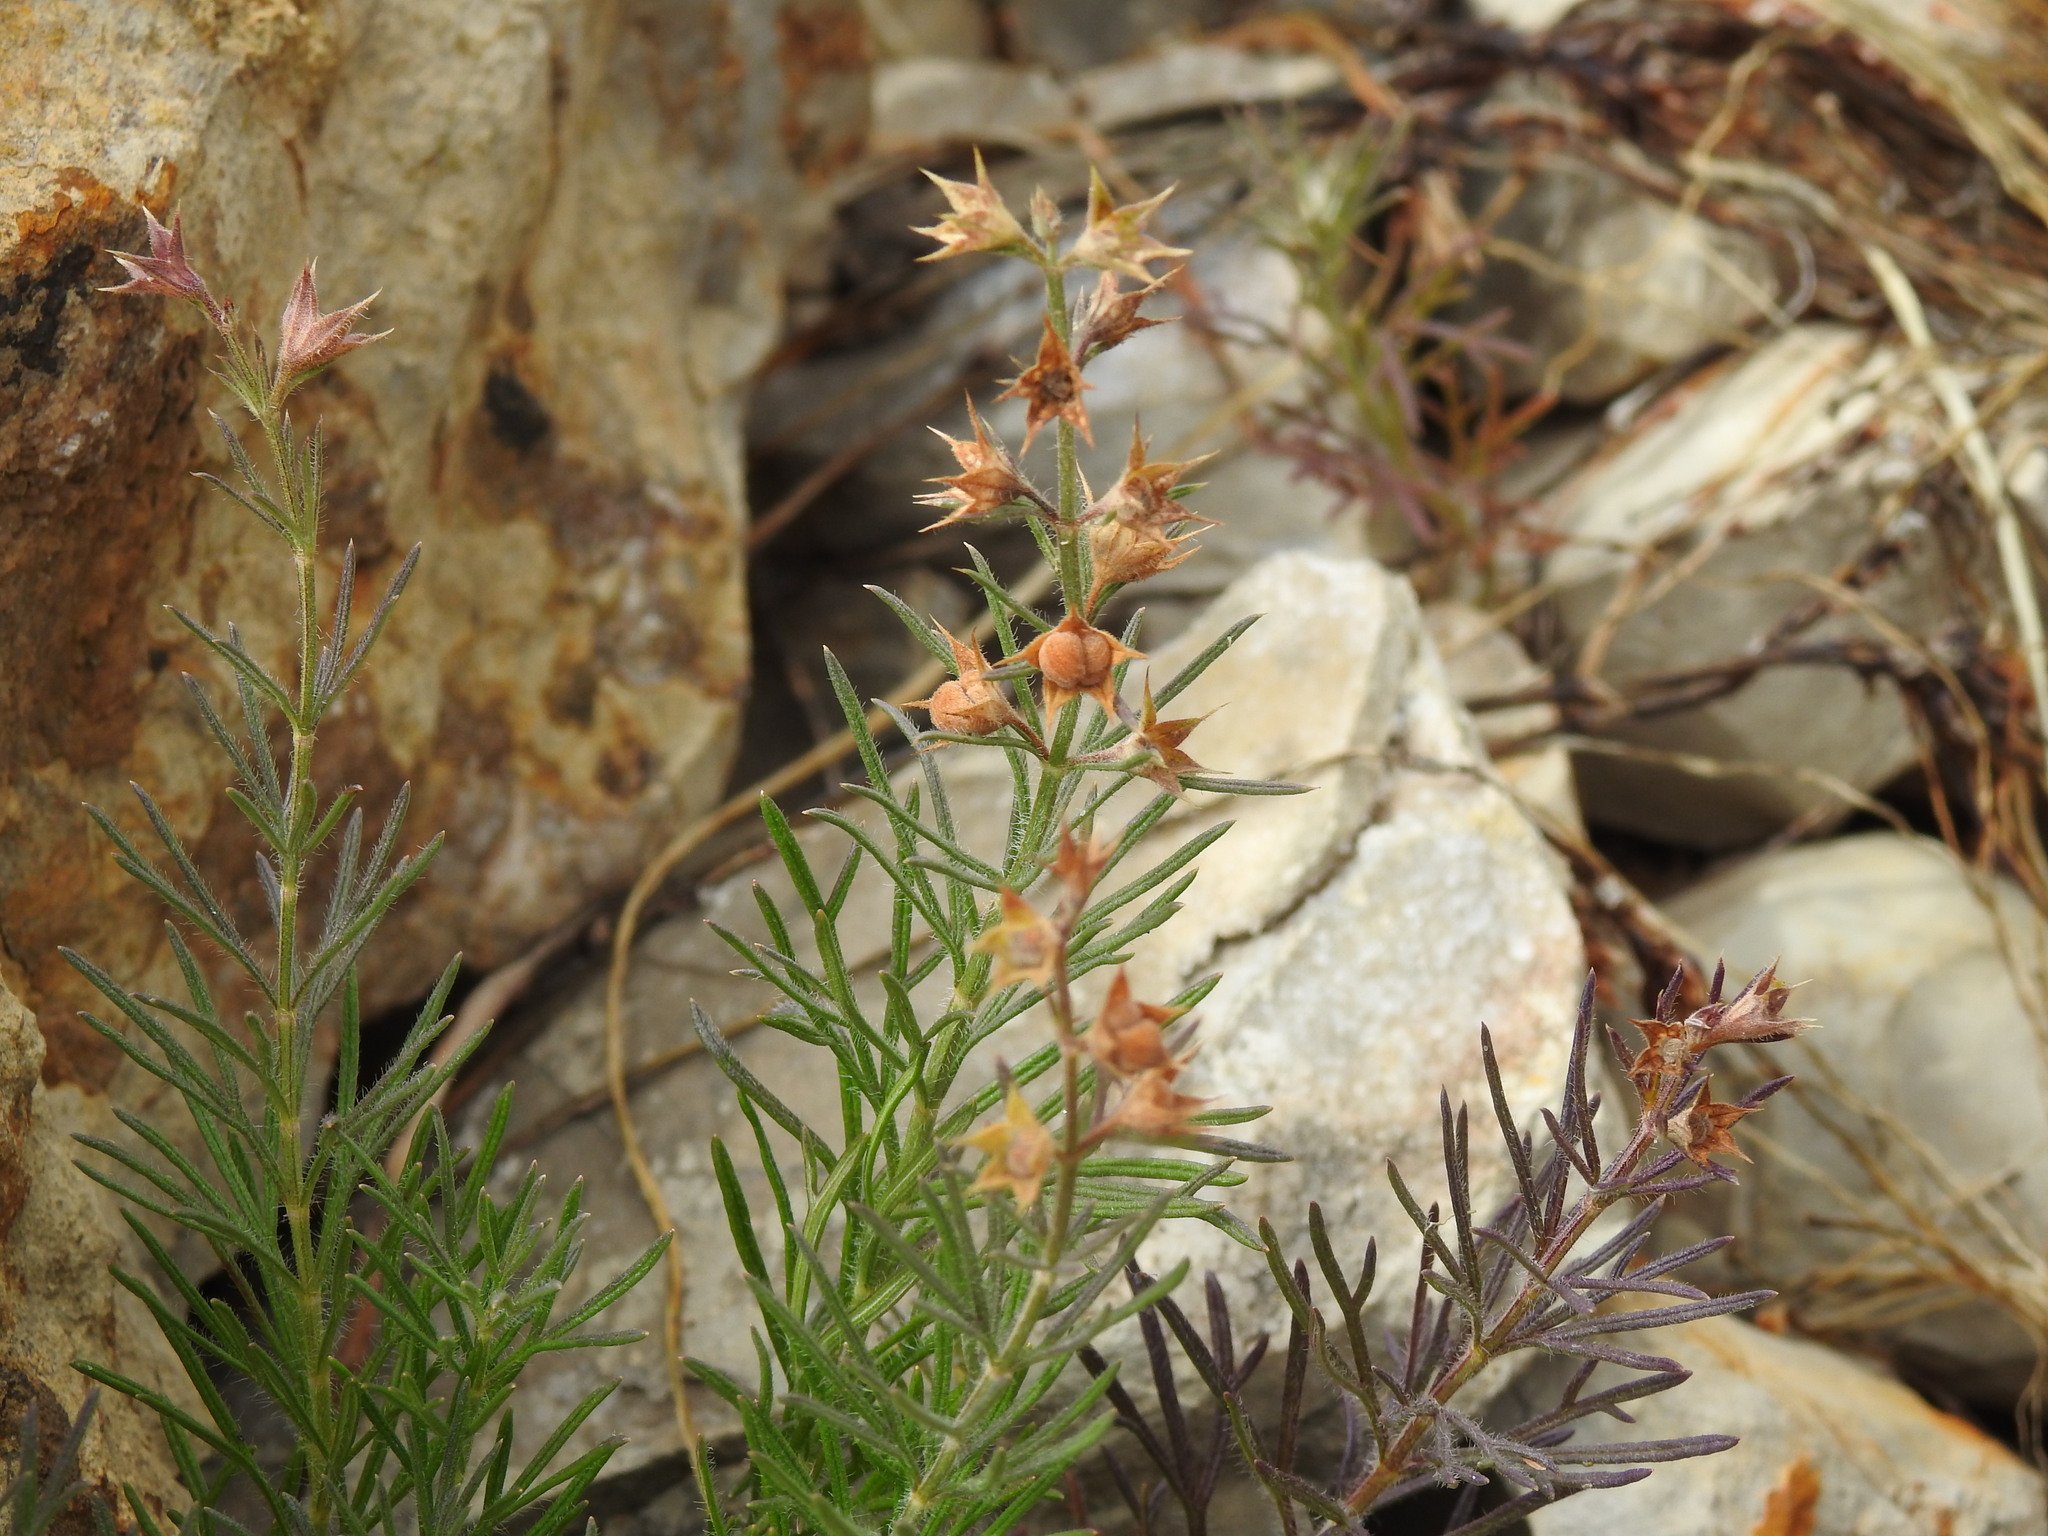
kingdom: Plantae
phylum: Tracheophyta
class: Magnoliopsida
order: Lamiales
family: Lamiaceae
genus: Teucrium
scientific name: Teucrium pseudochamaepitys
